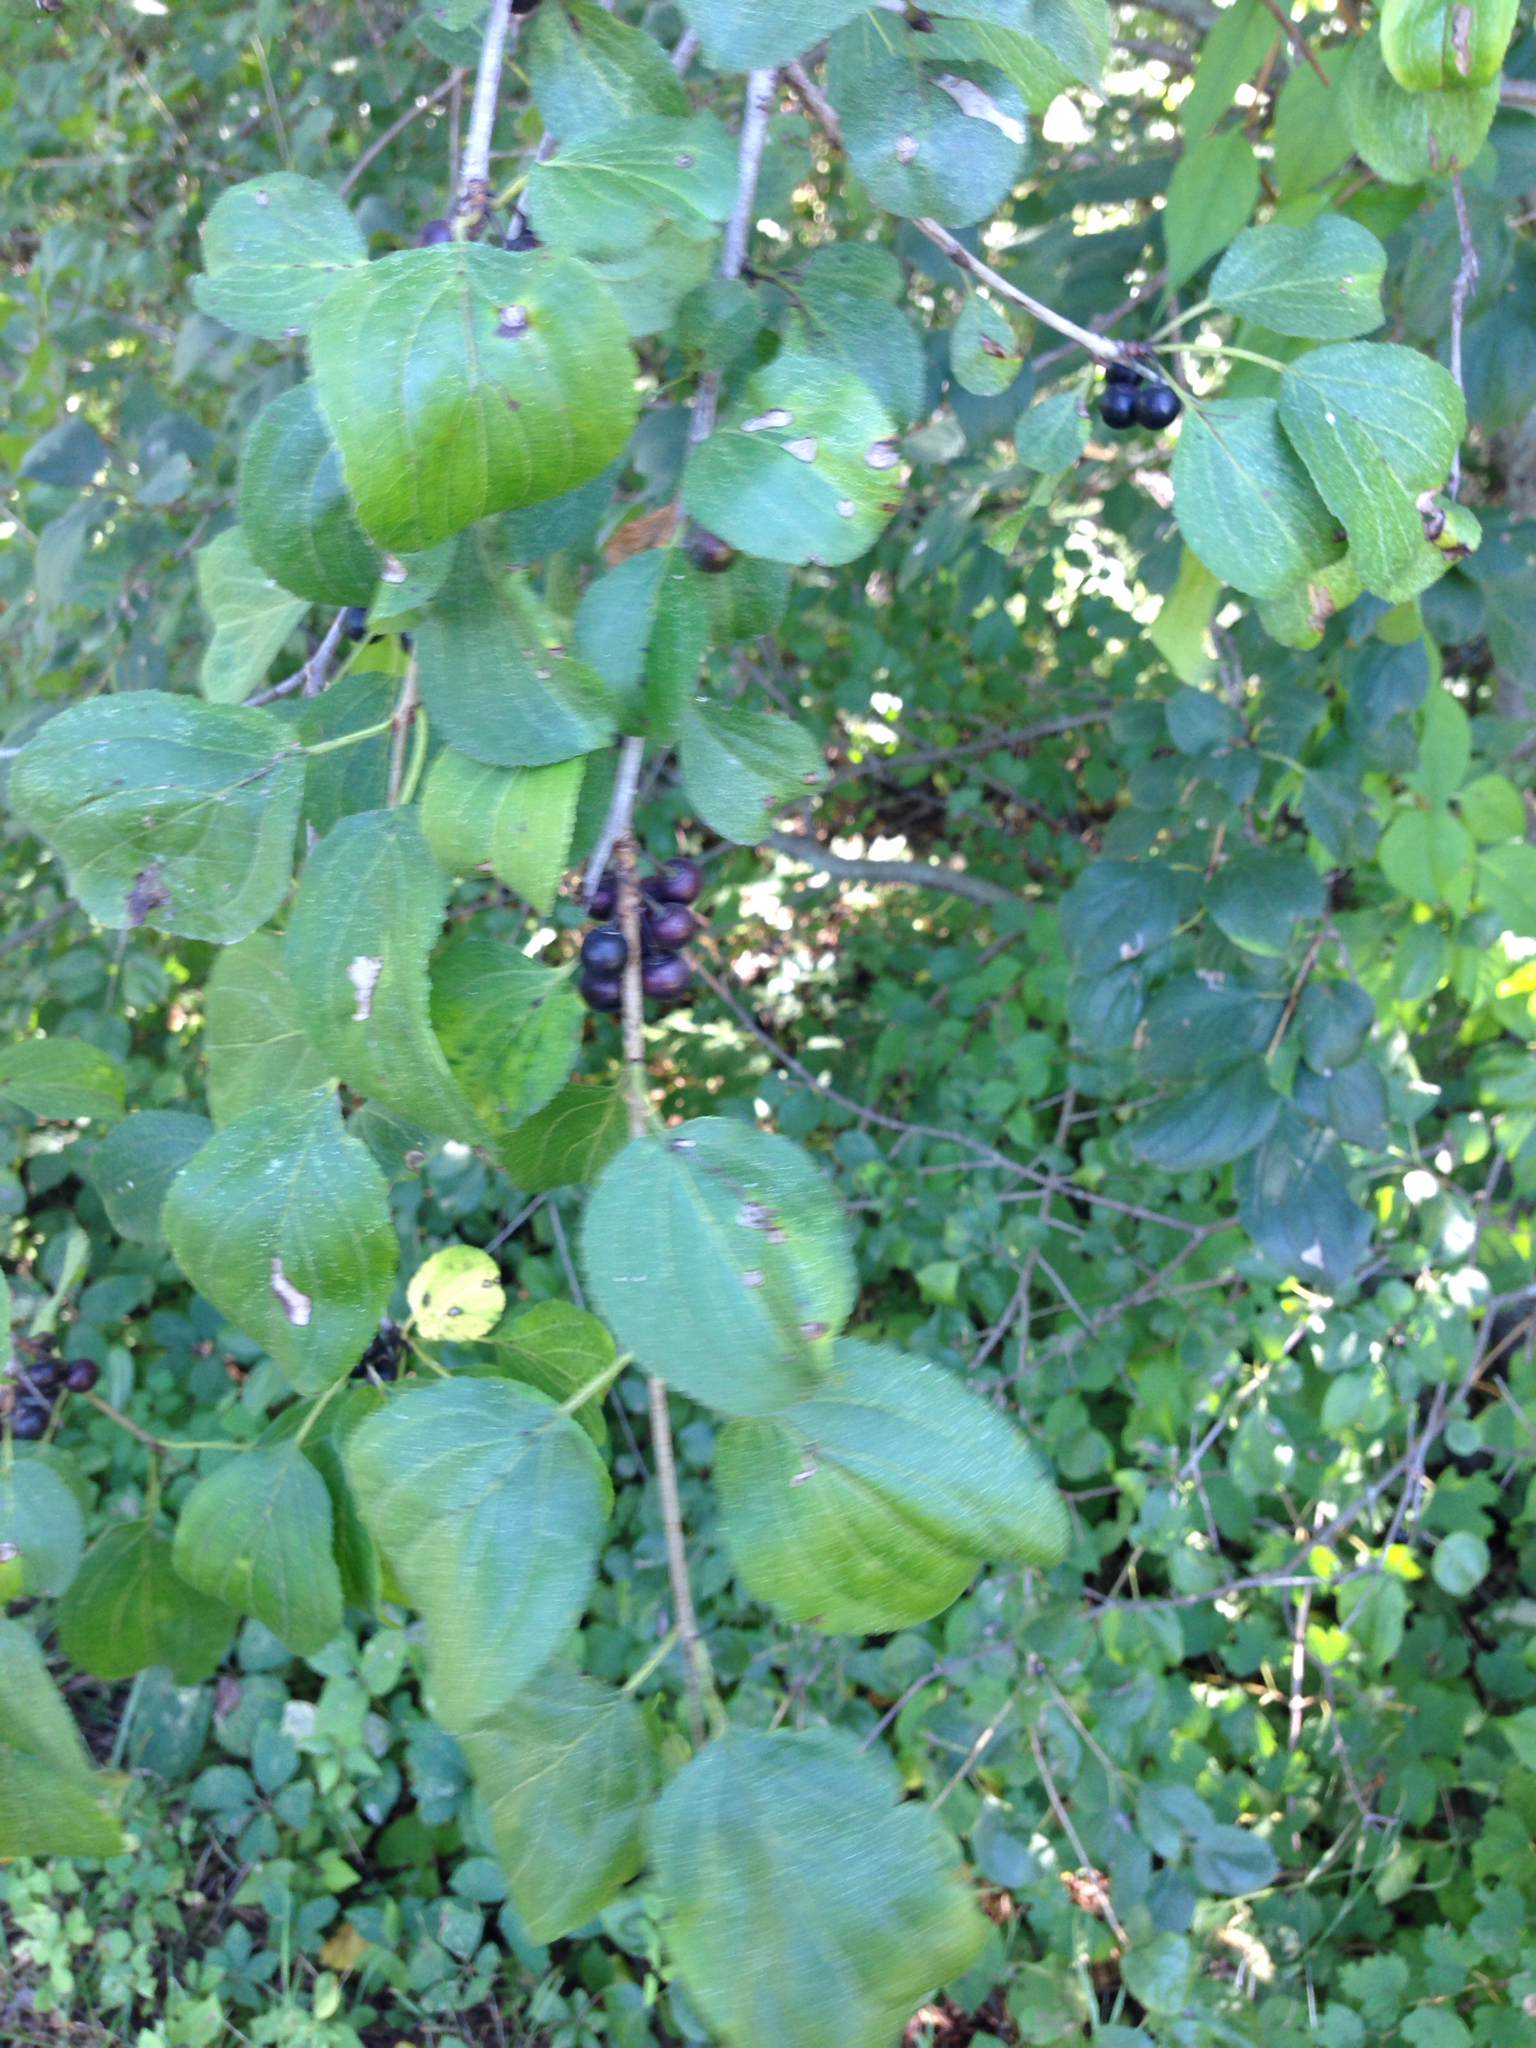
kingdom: Plantae
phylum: Tracheophyta
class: Magnoliopsida
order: Rosales
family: Rhamnaceae
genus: Rhamnus
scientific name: Rhamnus cathartica
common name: Common buckthorn
